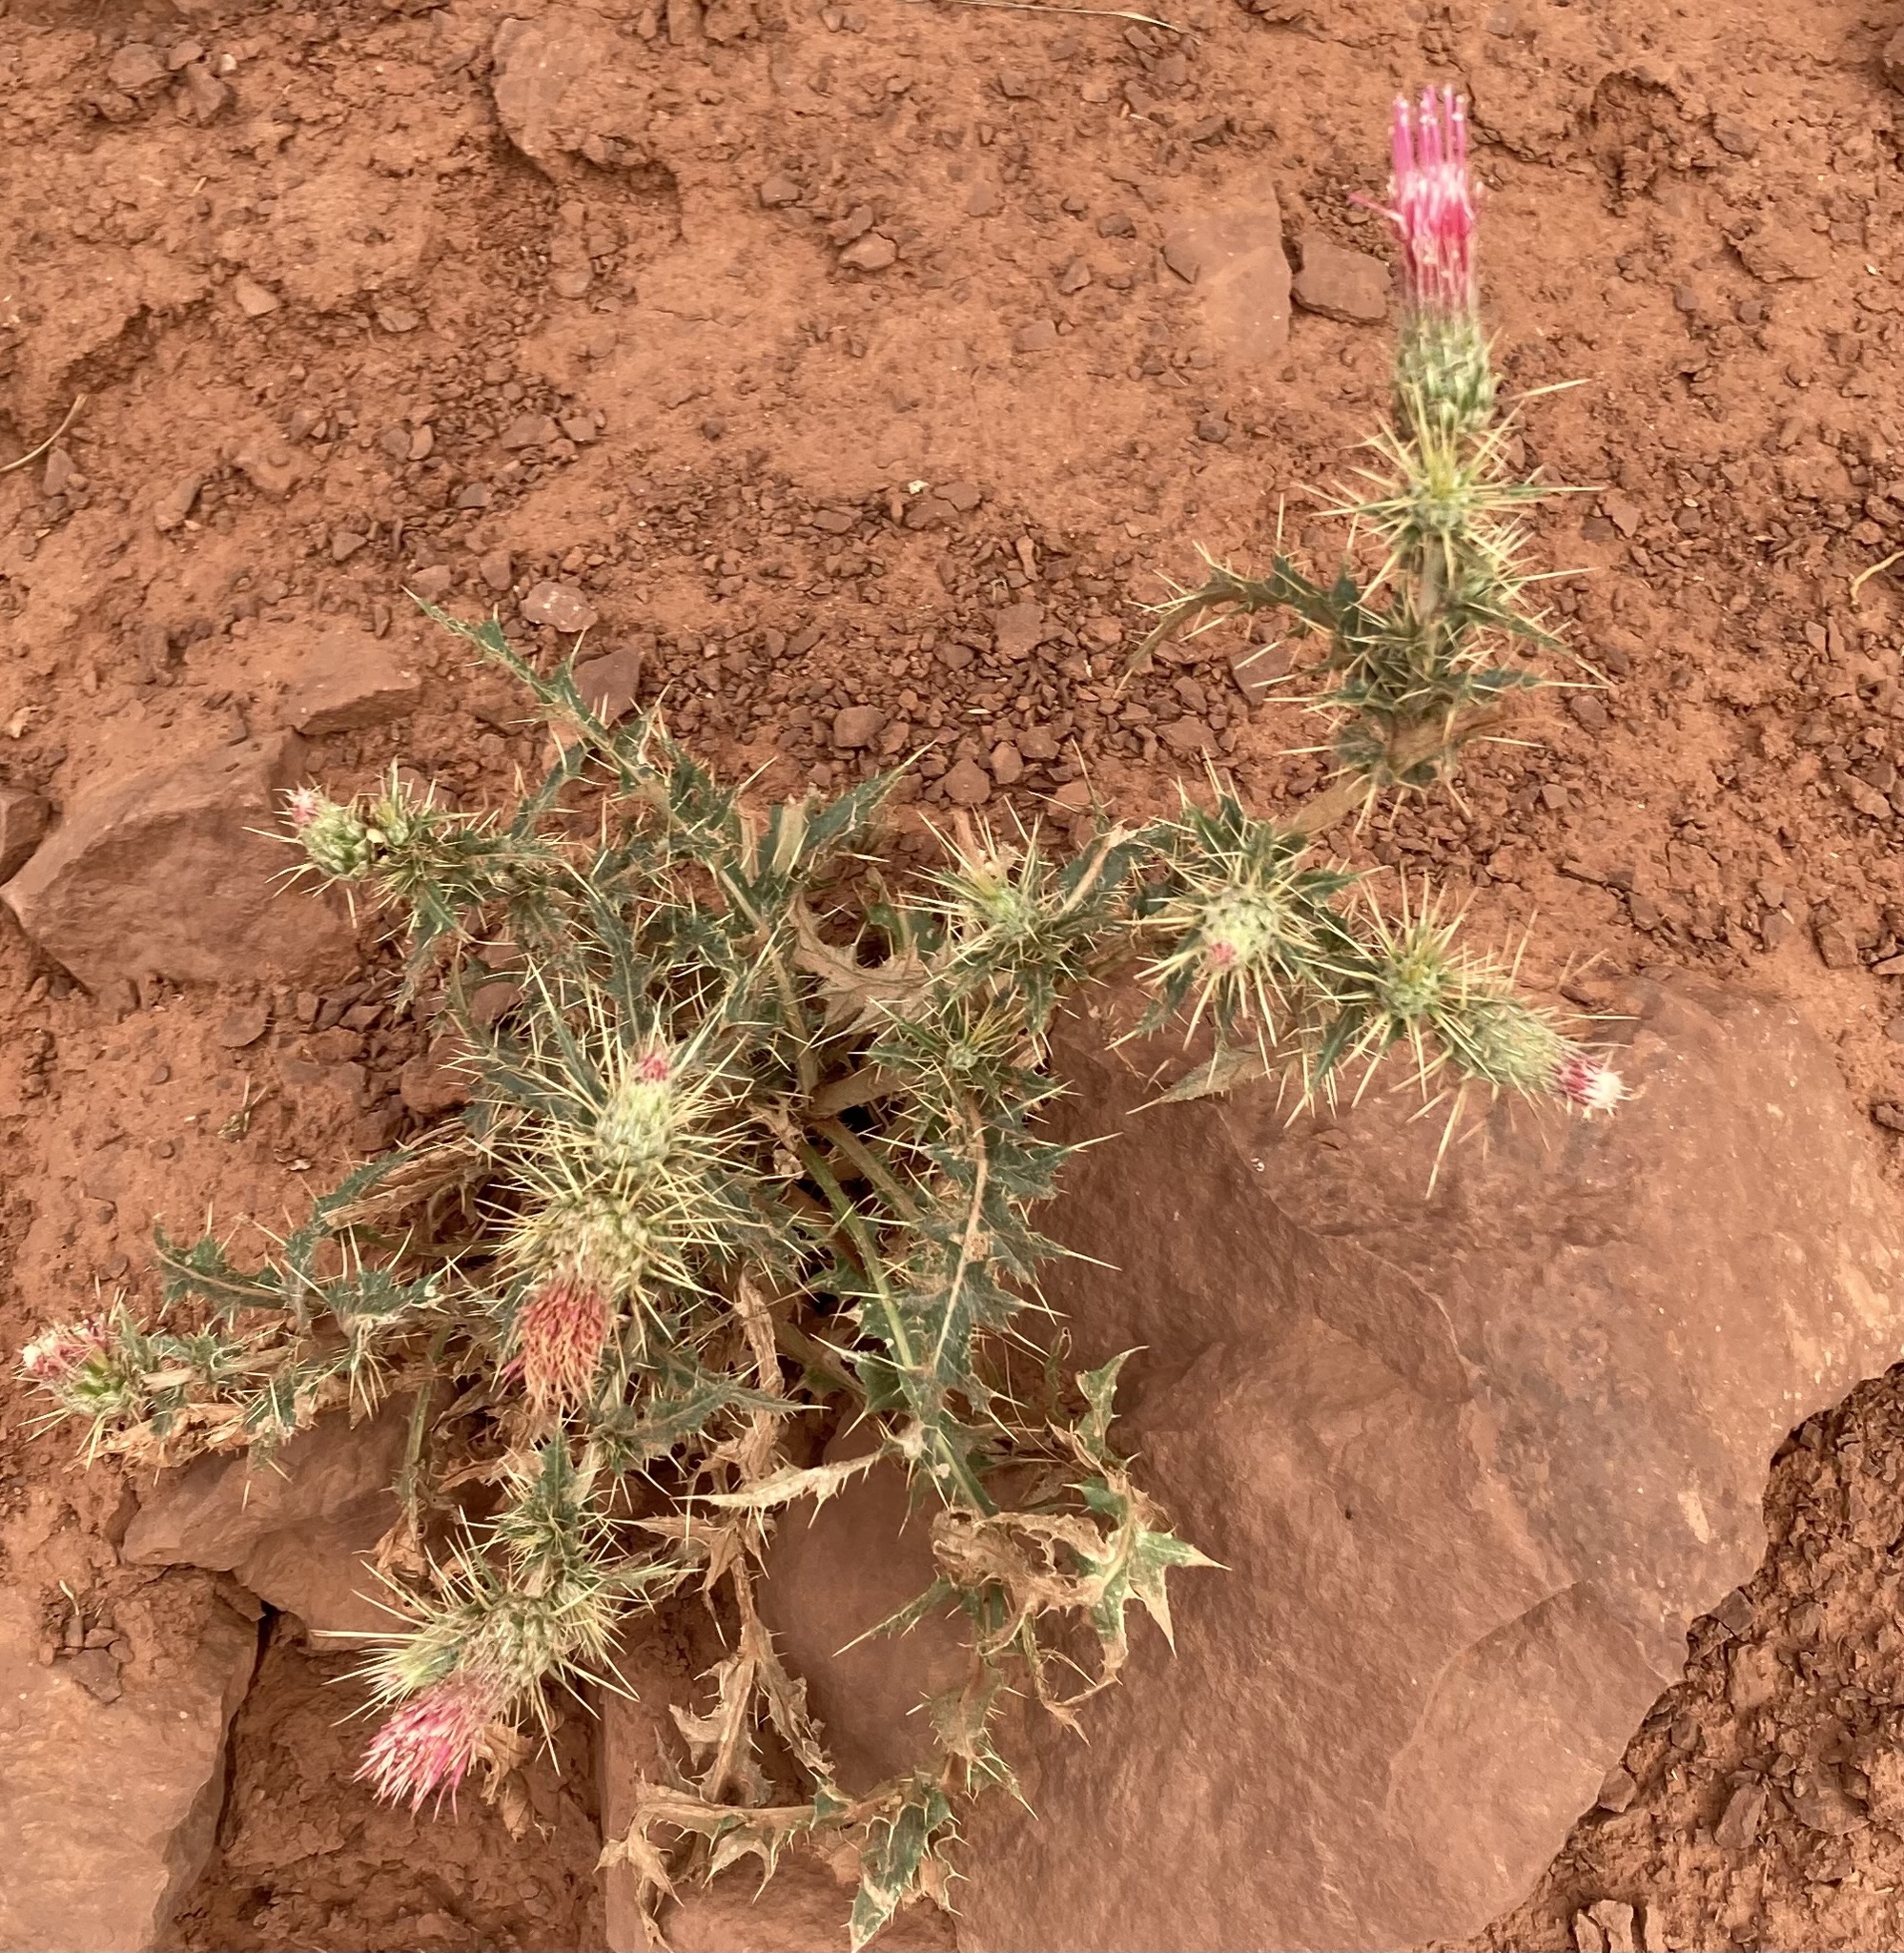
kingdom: Plantae
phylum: Tracheophyta
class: Magnoliopsida
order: Asterales
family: Asteraceae
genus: Cirsium
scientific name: Cirsium arizonicum
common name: Arizona thistle
